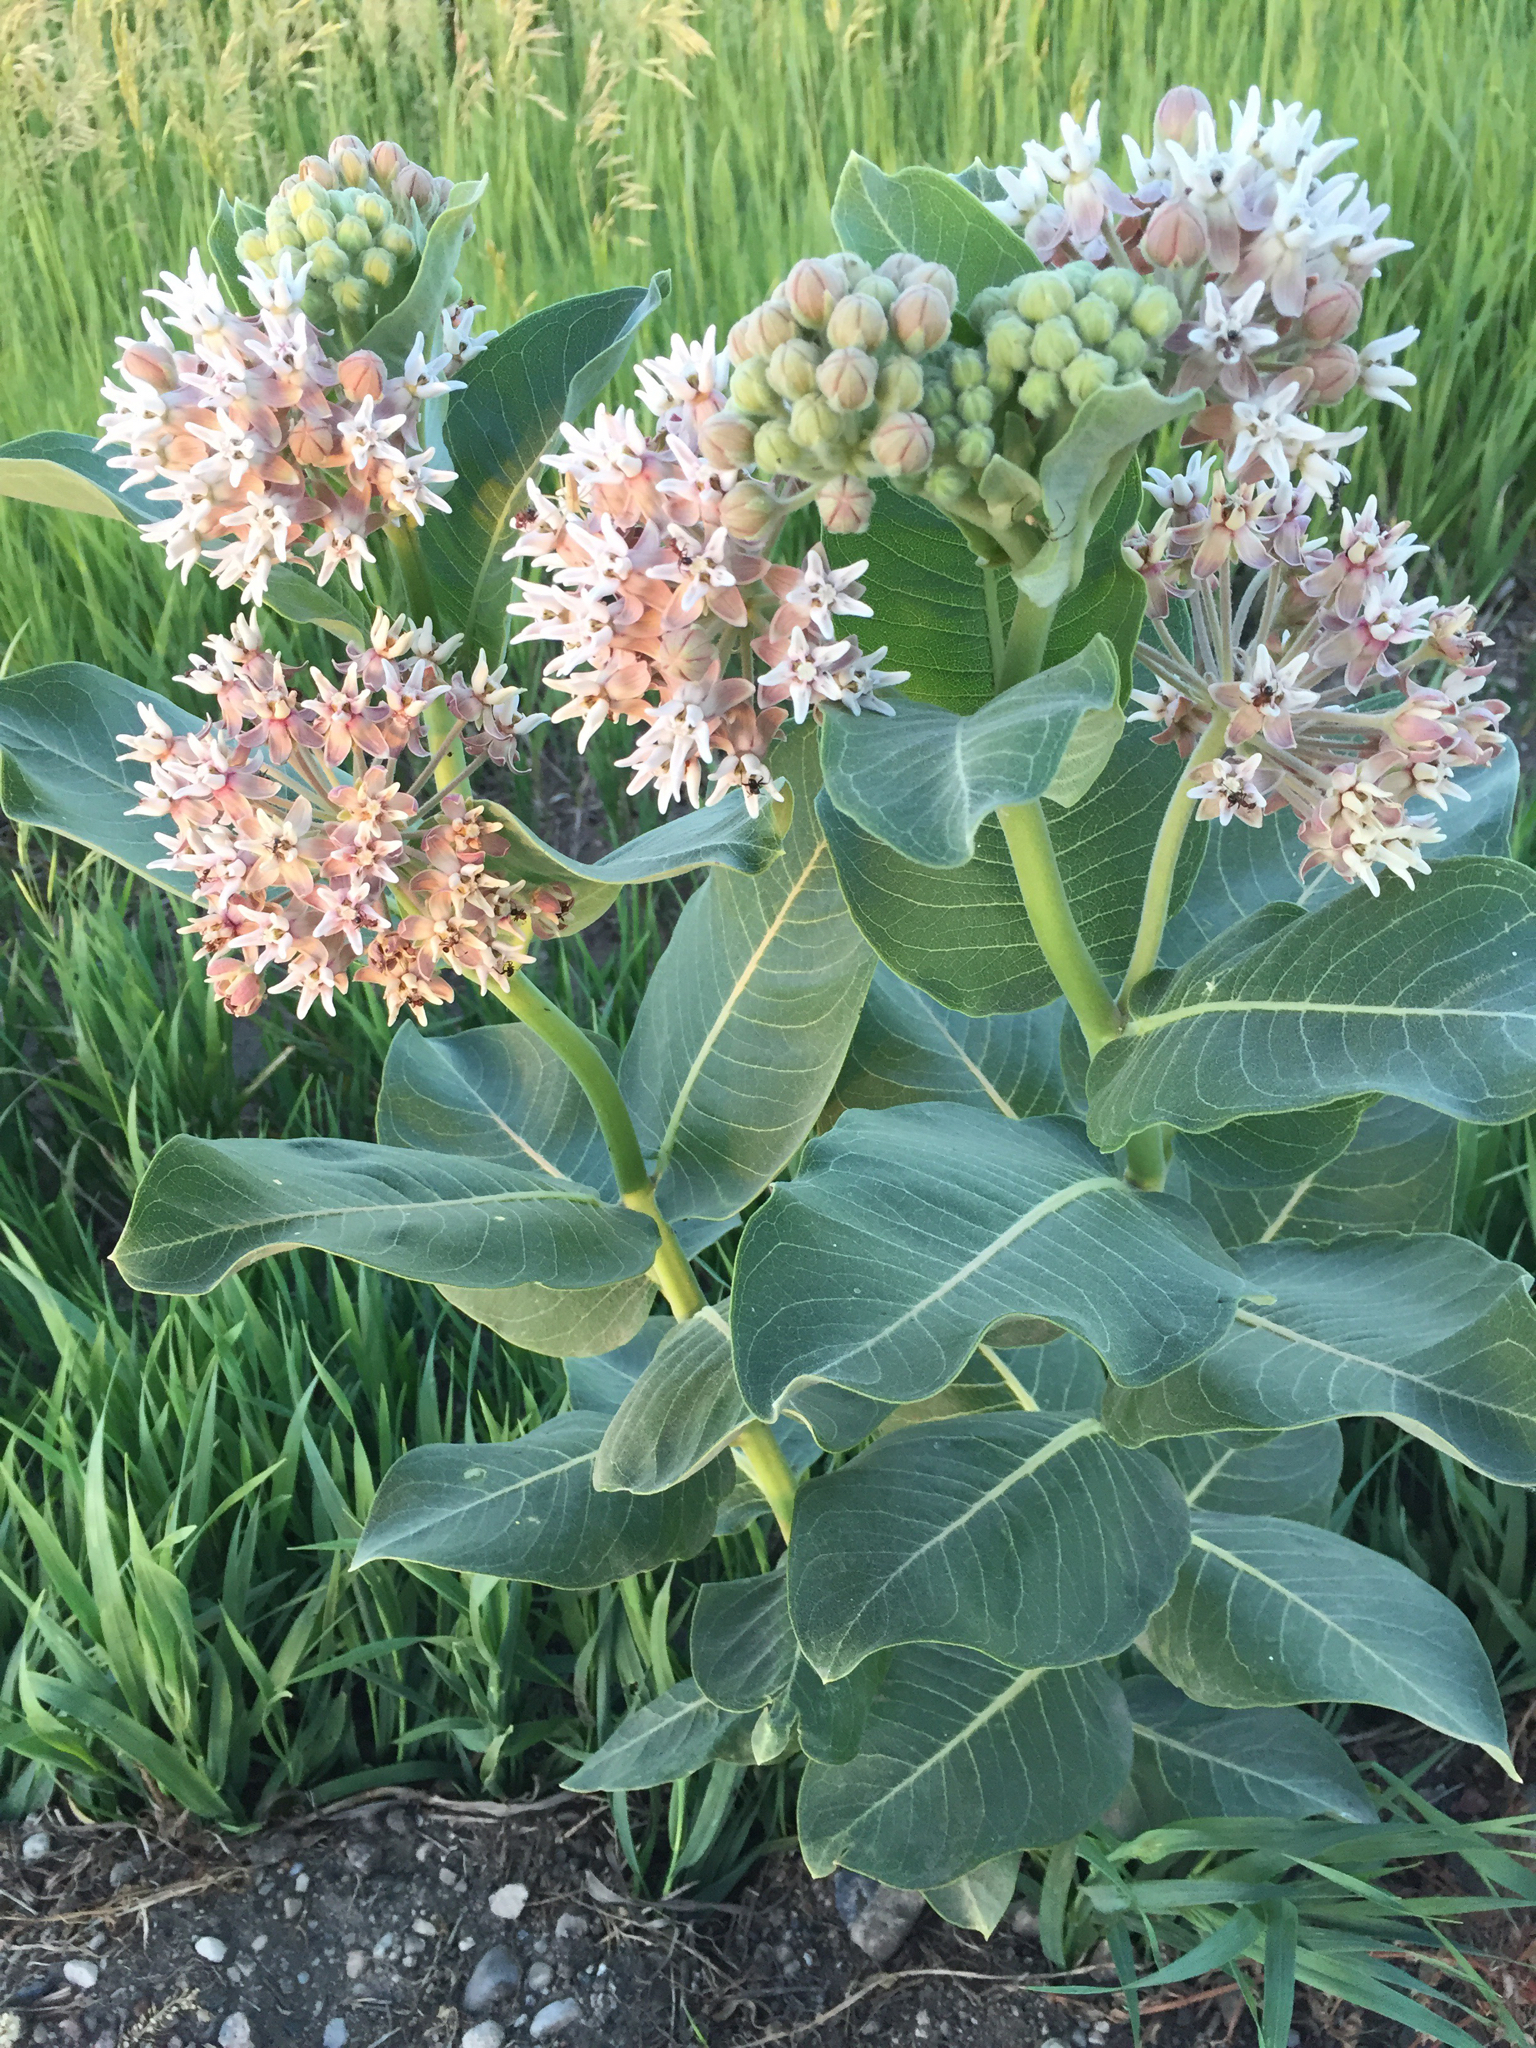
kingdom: Plantae
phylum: Tracheophyta
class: Magnoliopsida
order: Gentianales
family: Apocynaceae
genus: Asclepias
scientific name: Asclepias speciosa
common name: Showy milkweed
